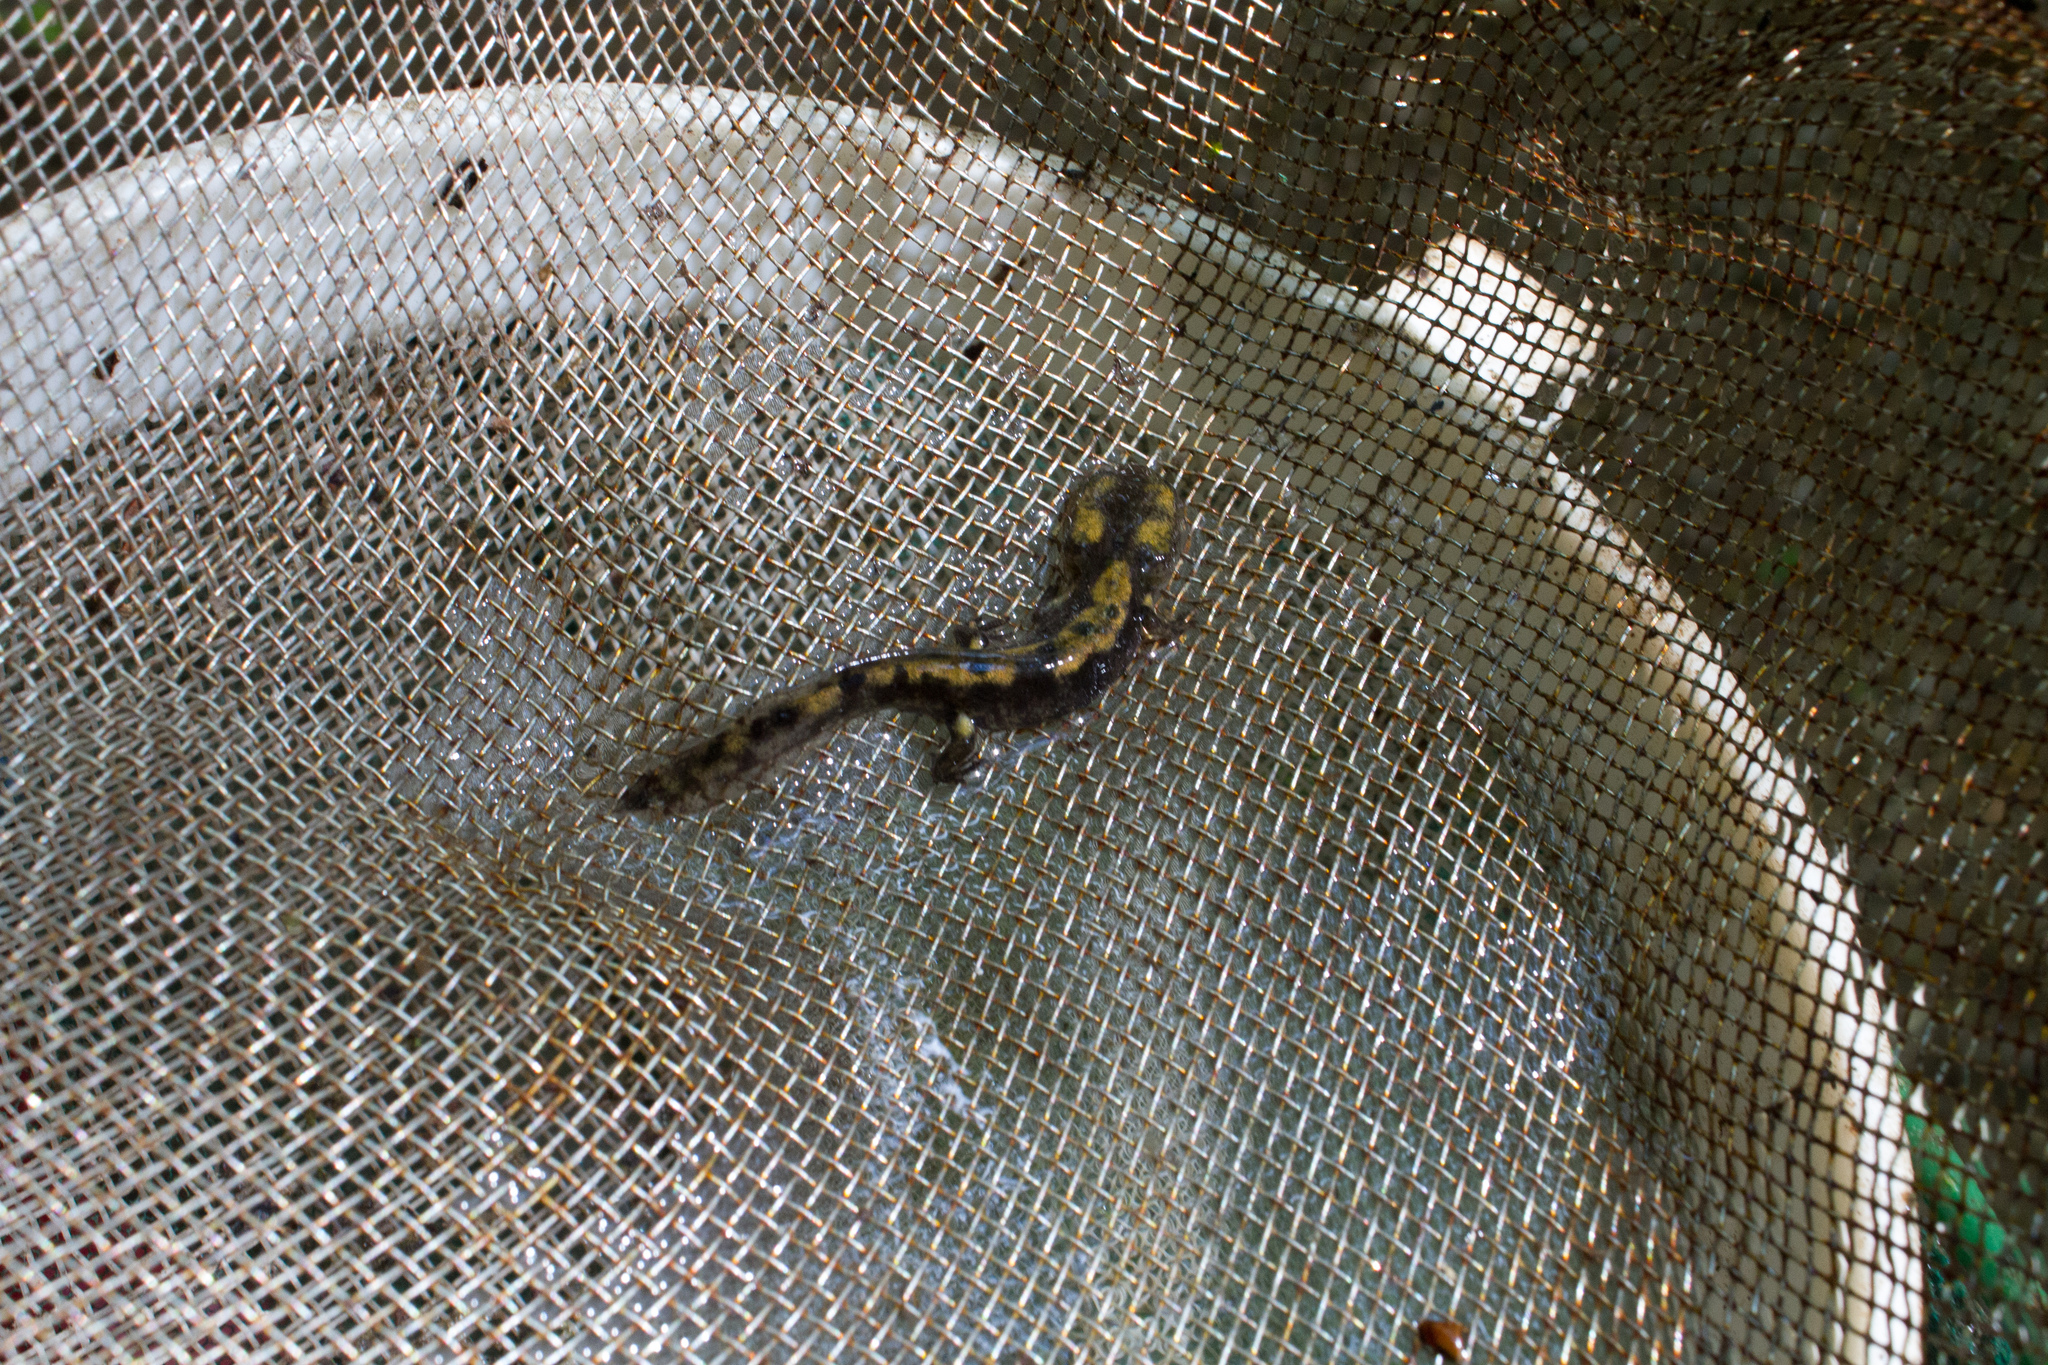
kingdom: Animalia
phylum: Chordata
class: Amphibia
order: Caudata
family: Salamandridae
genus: Salamandra
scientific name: Salamandra salamandra
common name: Fire salamander
